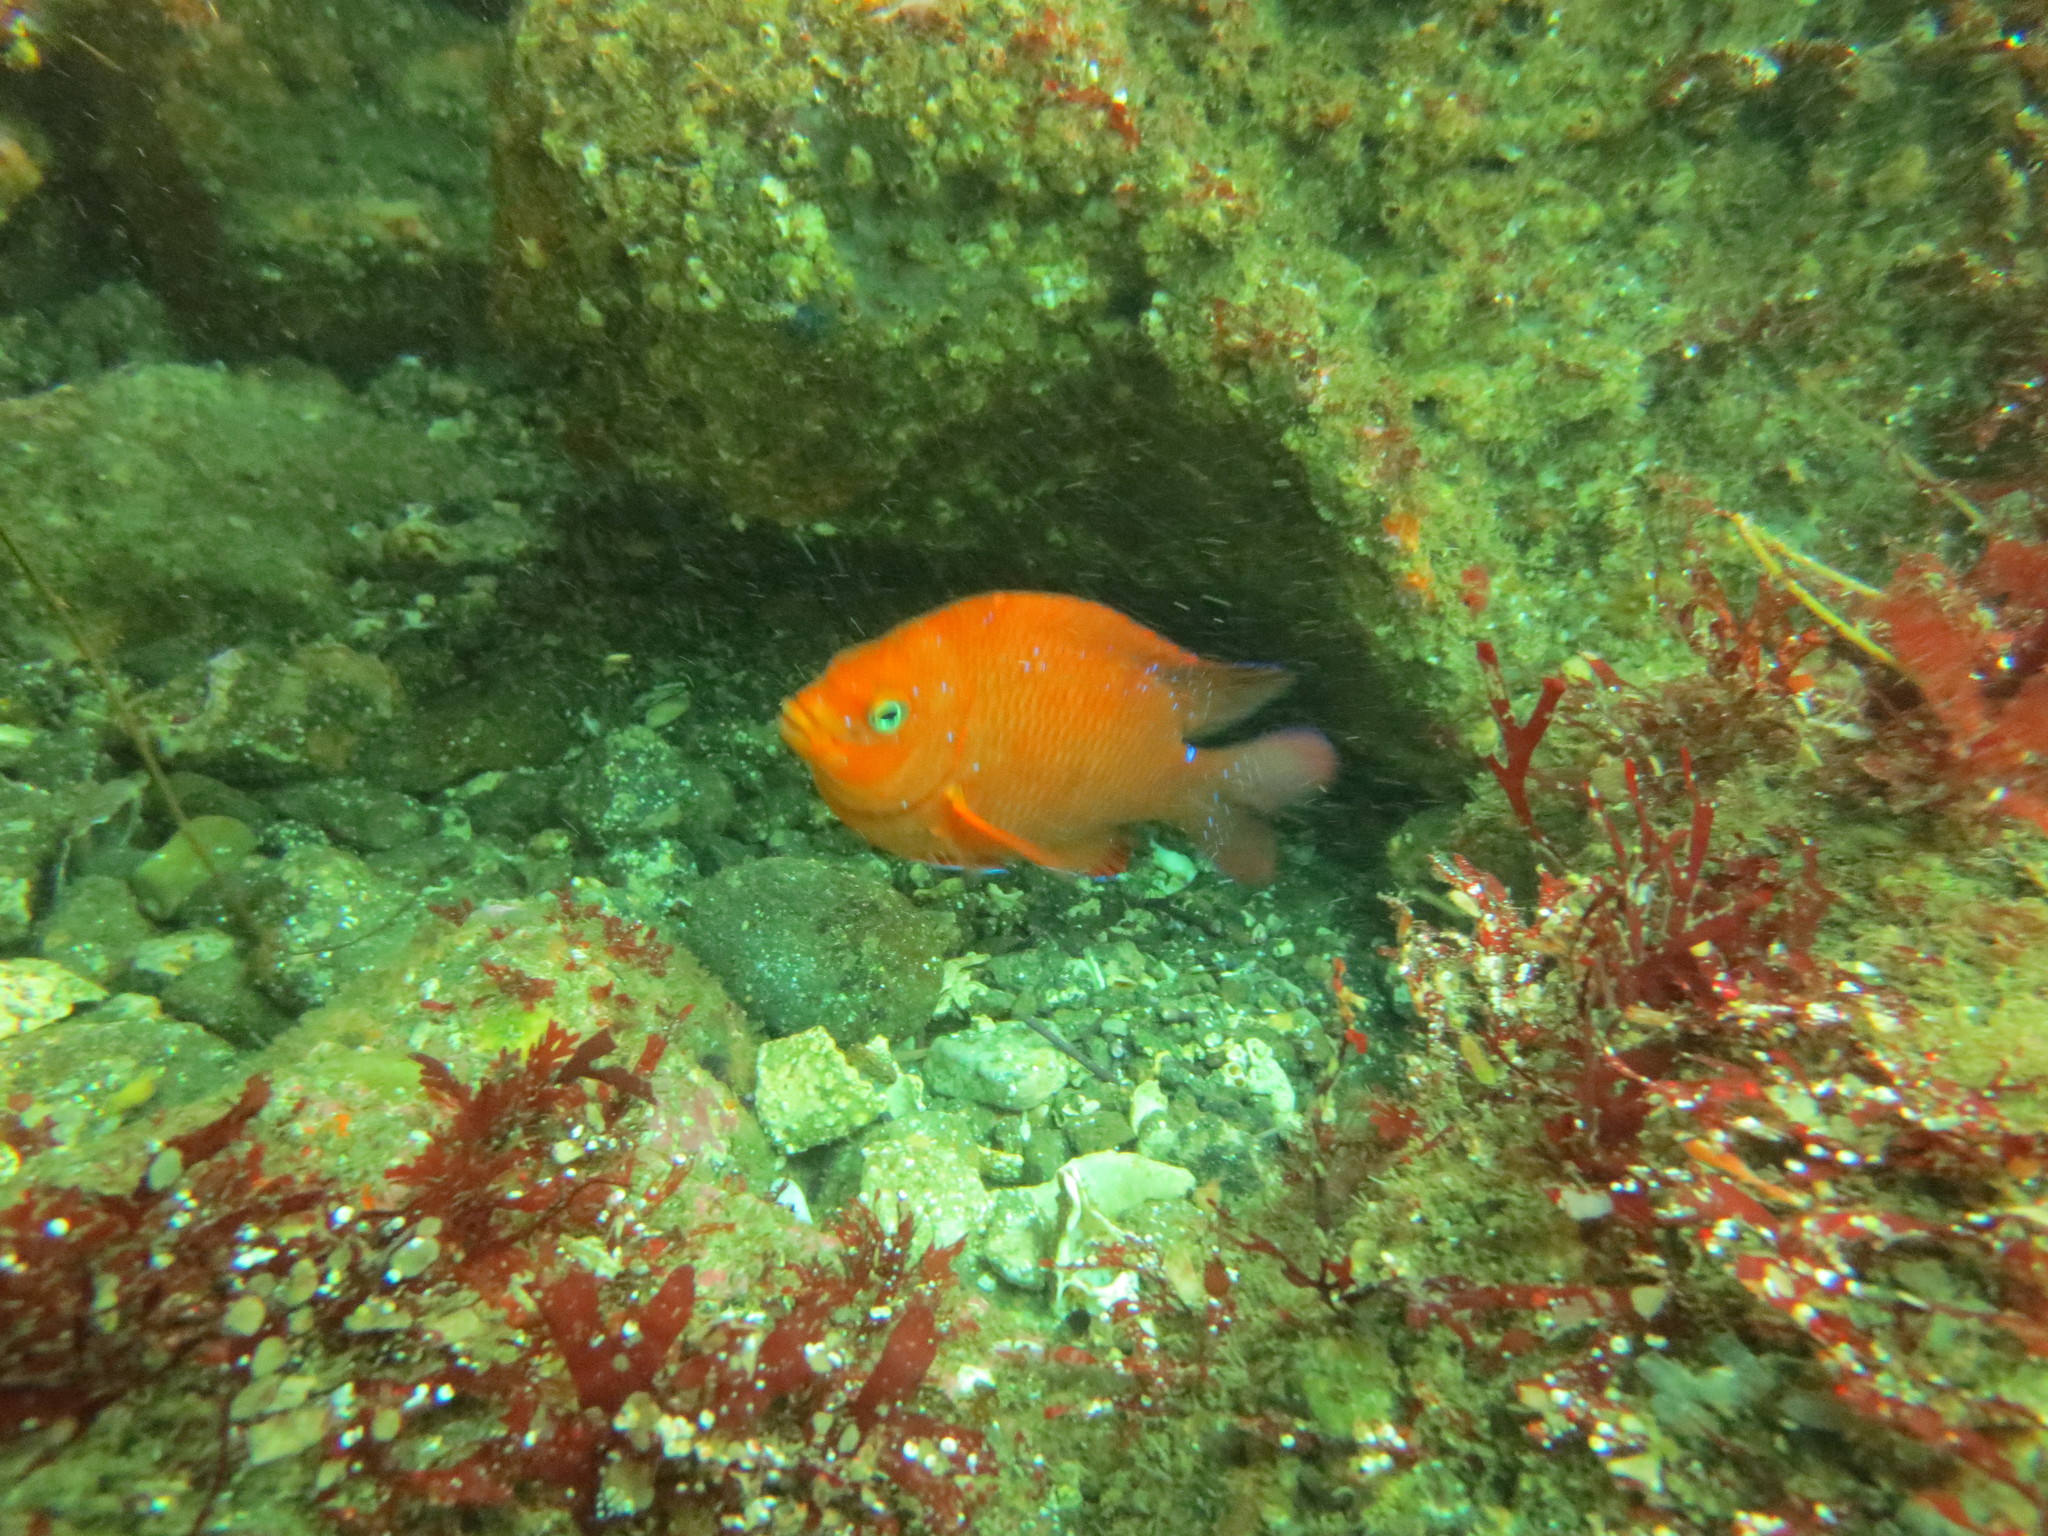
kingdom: Animalia
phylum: Chordata
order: Perciformes
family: Pomacentridae
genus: Hypsypops
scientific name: Hypsypops rubicundus
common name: Garibaldi
